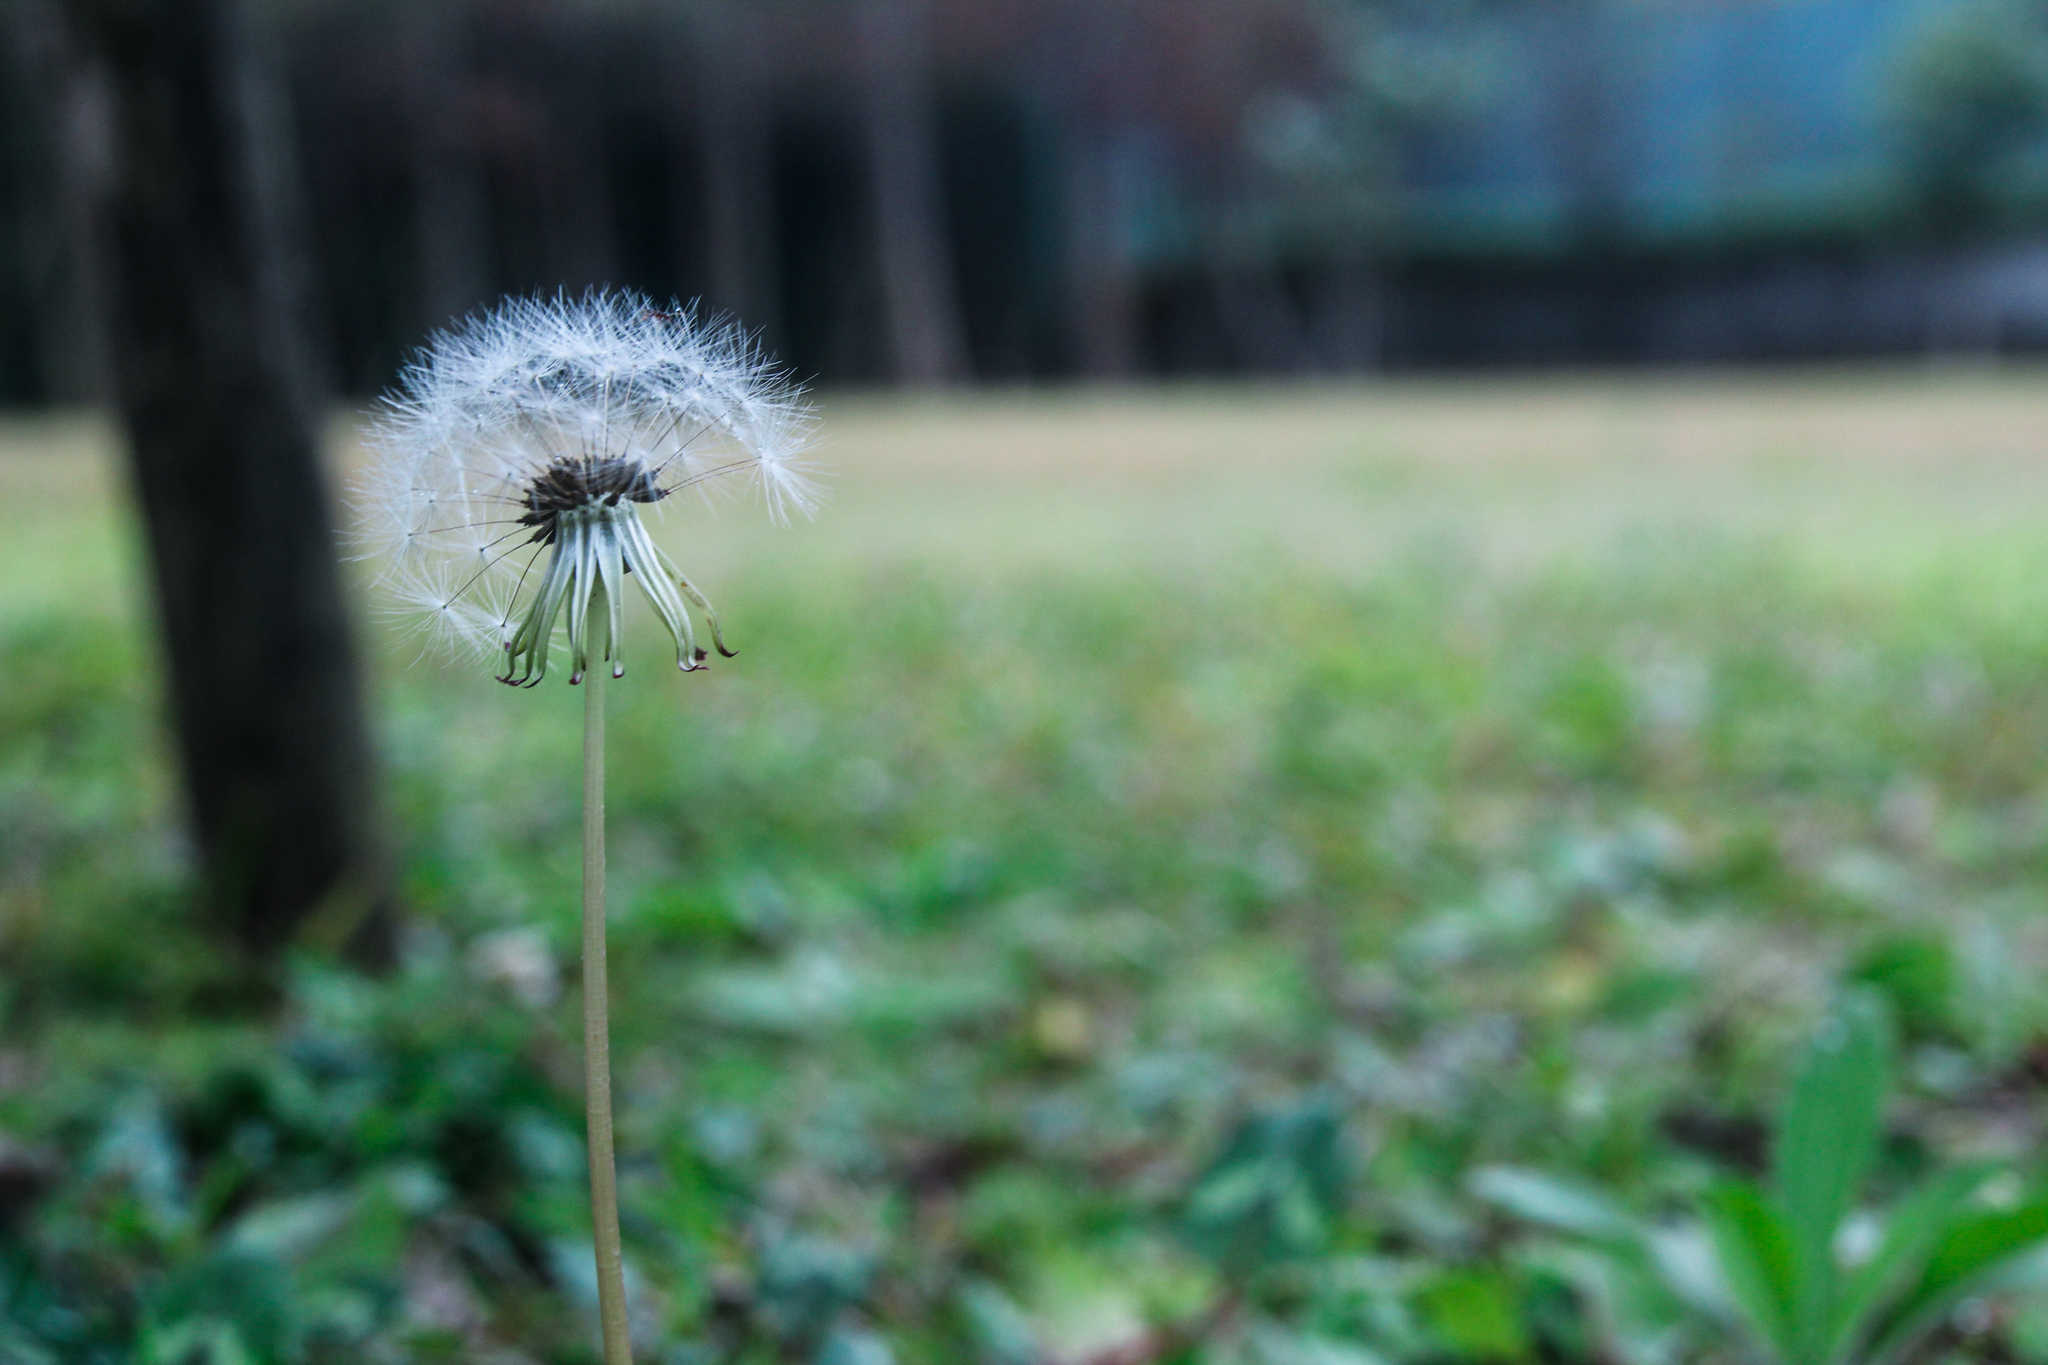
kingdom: Plantae
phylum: Tracheophyta
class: Magnoliopsida
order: Asterales
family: Asteraceae
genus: Taraxacum
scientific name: Taraxacum officinale
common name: Common dandelion
